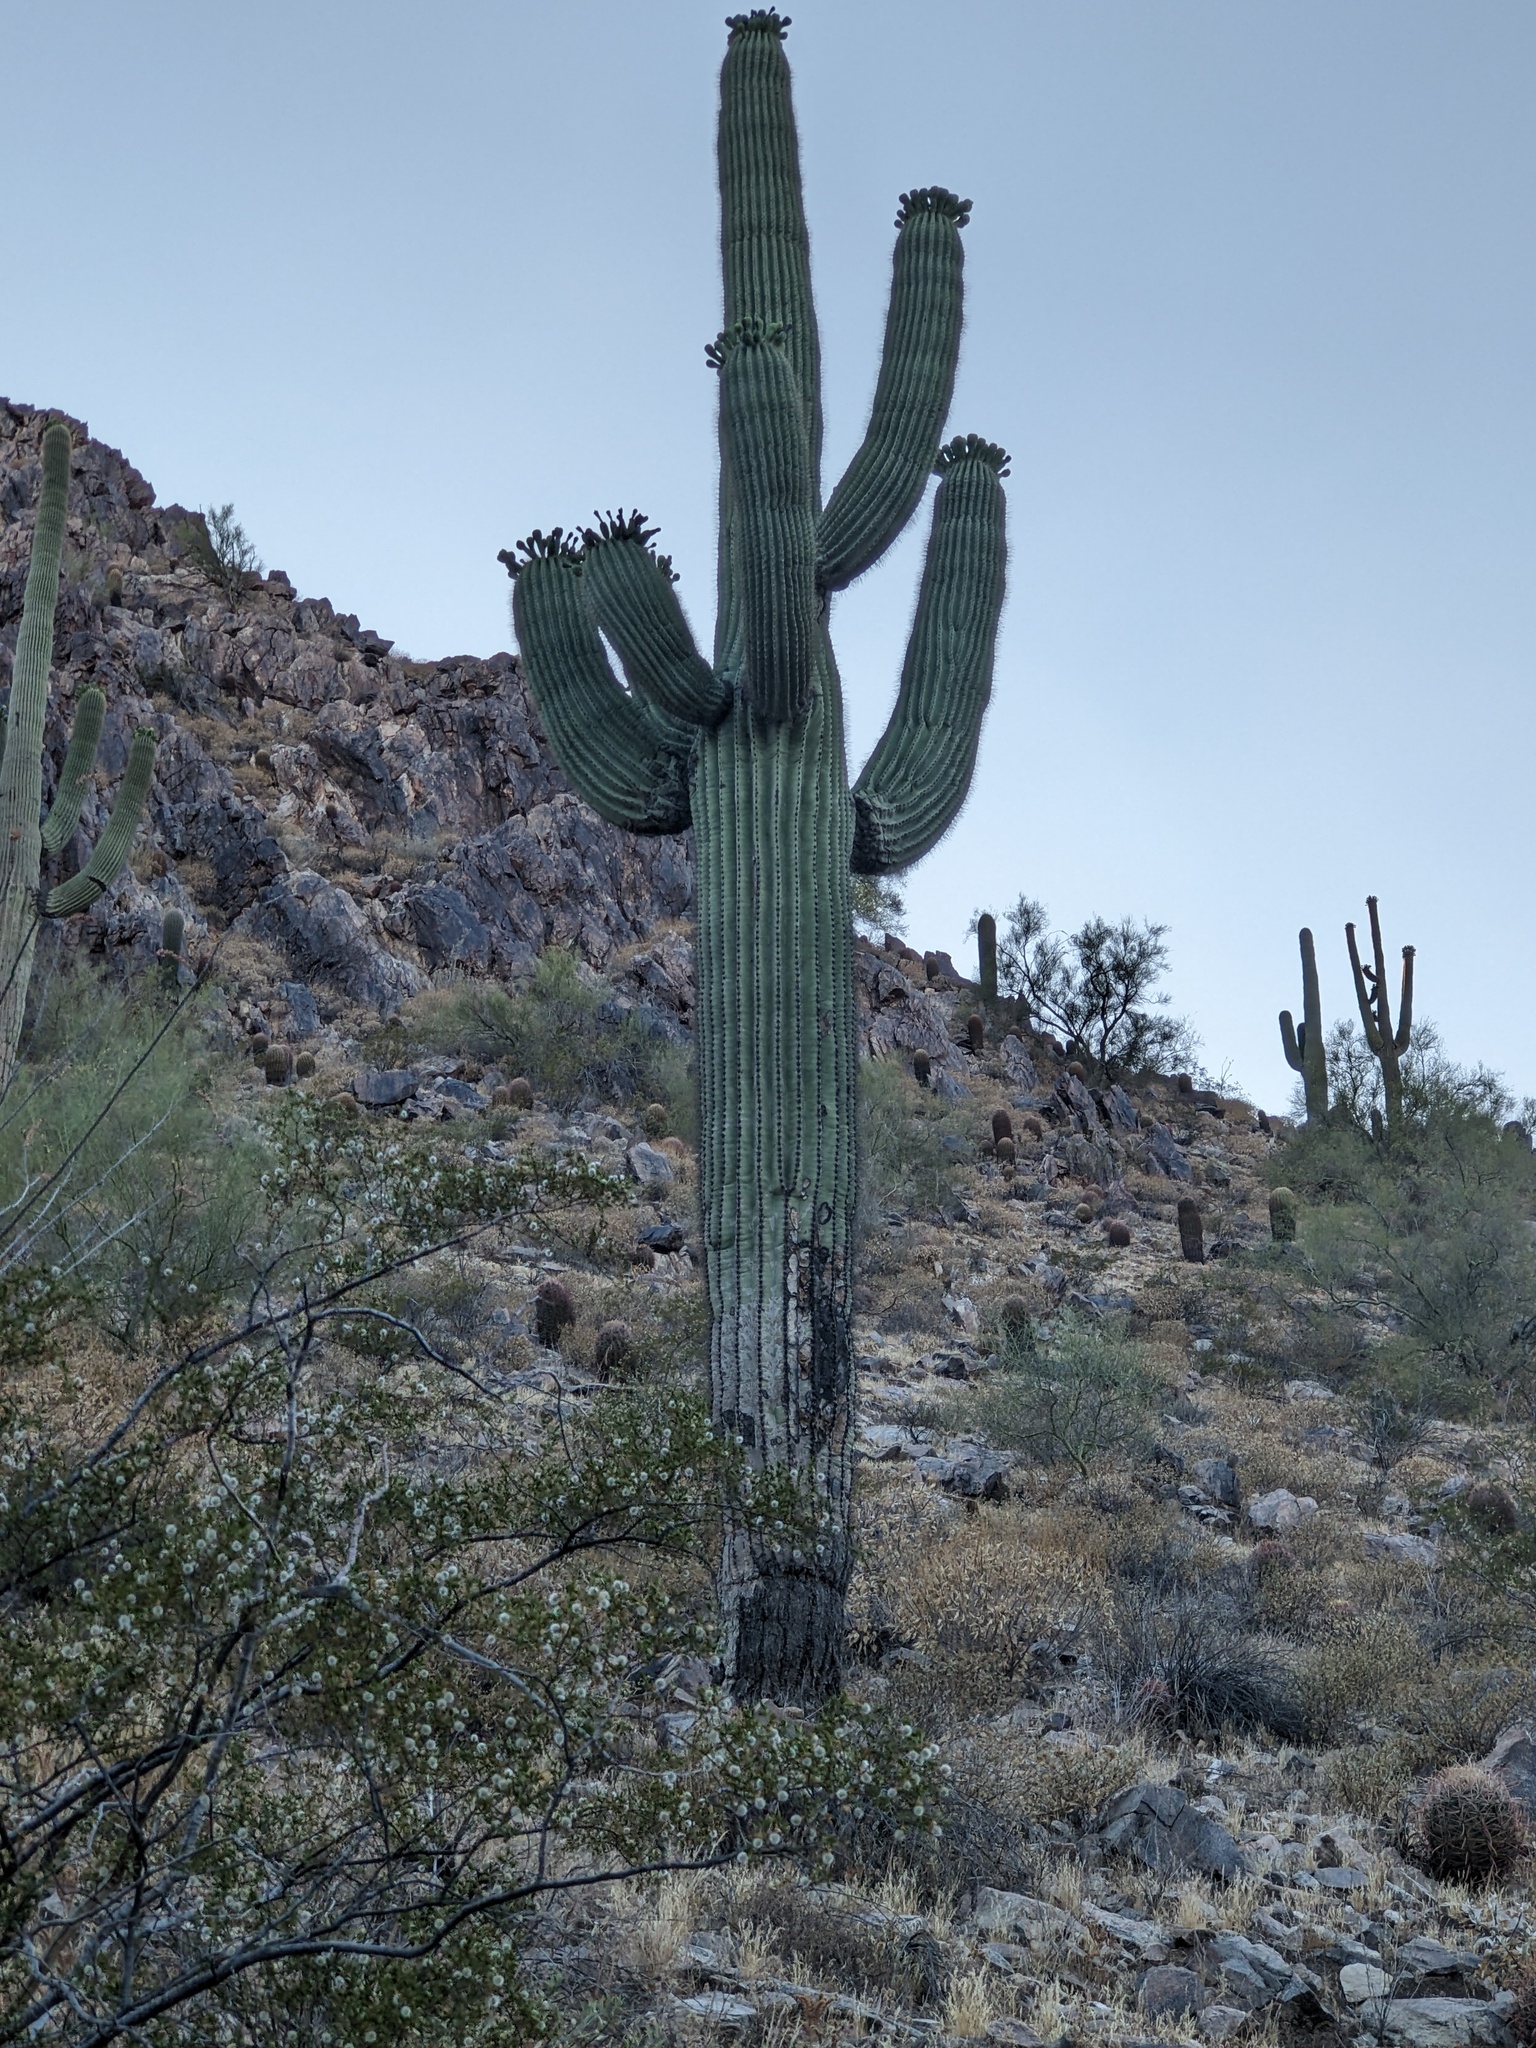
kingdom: Plantae
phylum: Tracheophyta
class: Magnoliopsida
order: Caryophyllales
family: Cactaceae
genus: Carnegiea
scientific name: Carnegiea gigantea
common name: Saguaro
